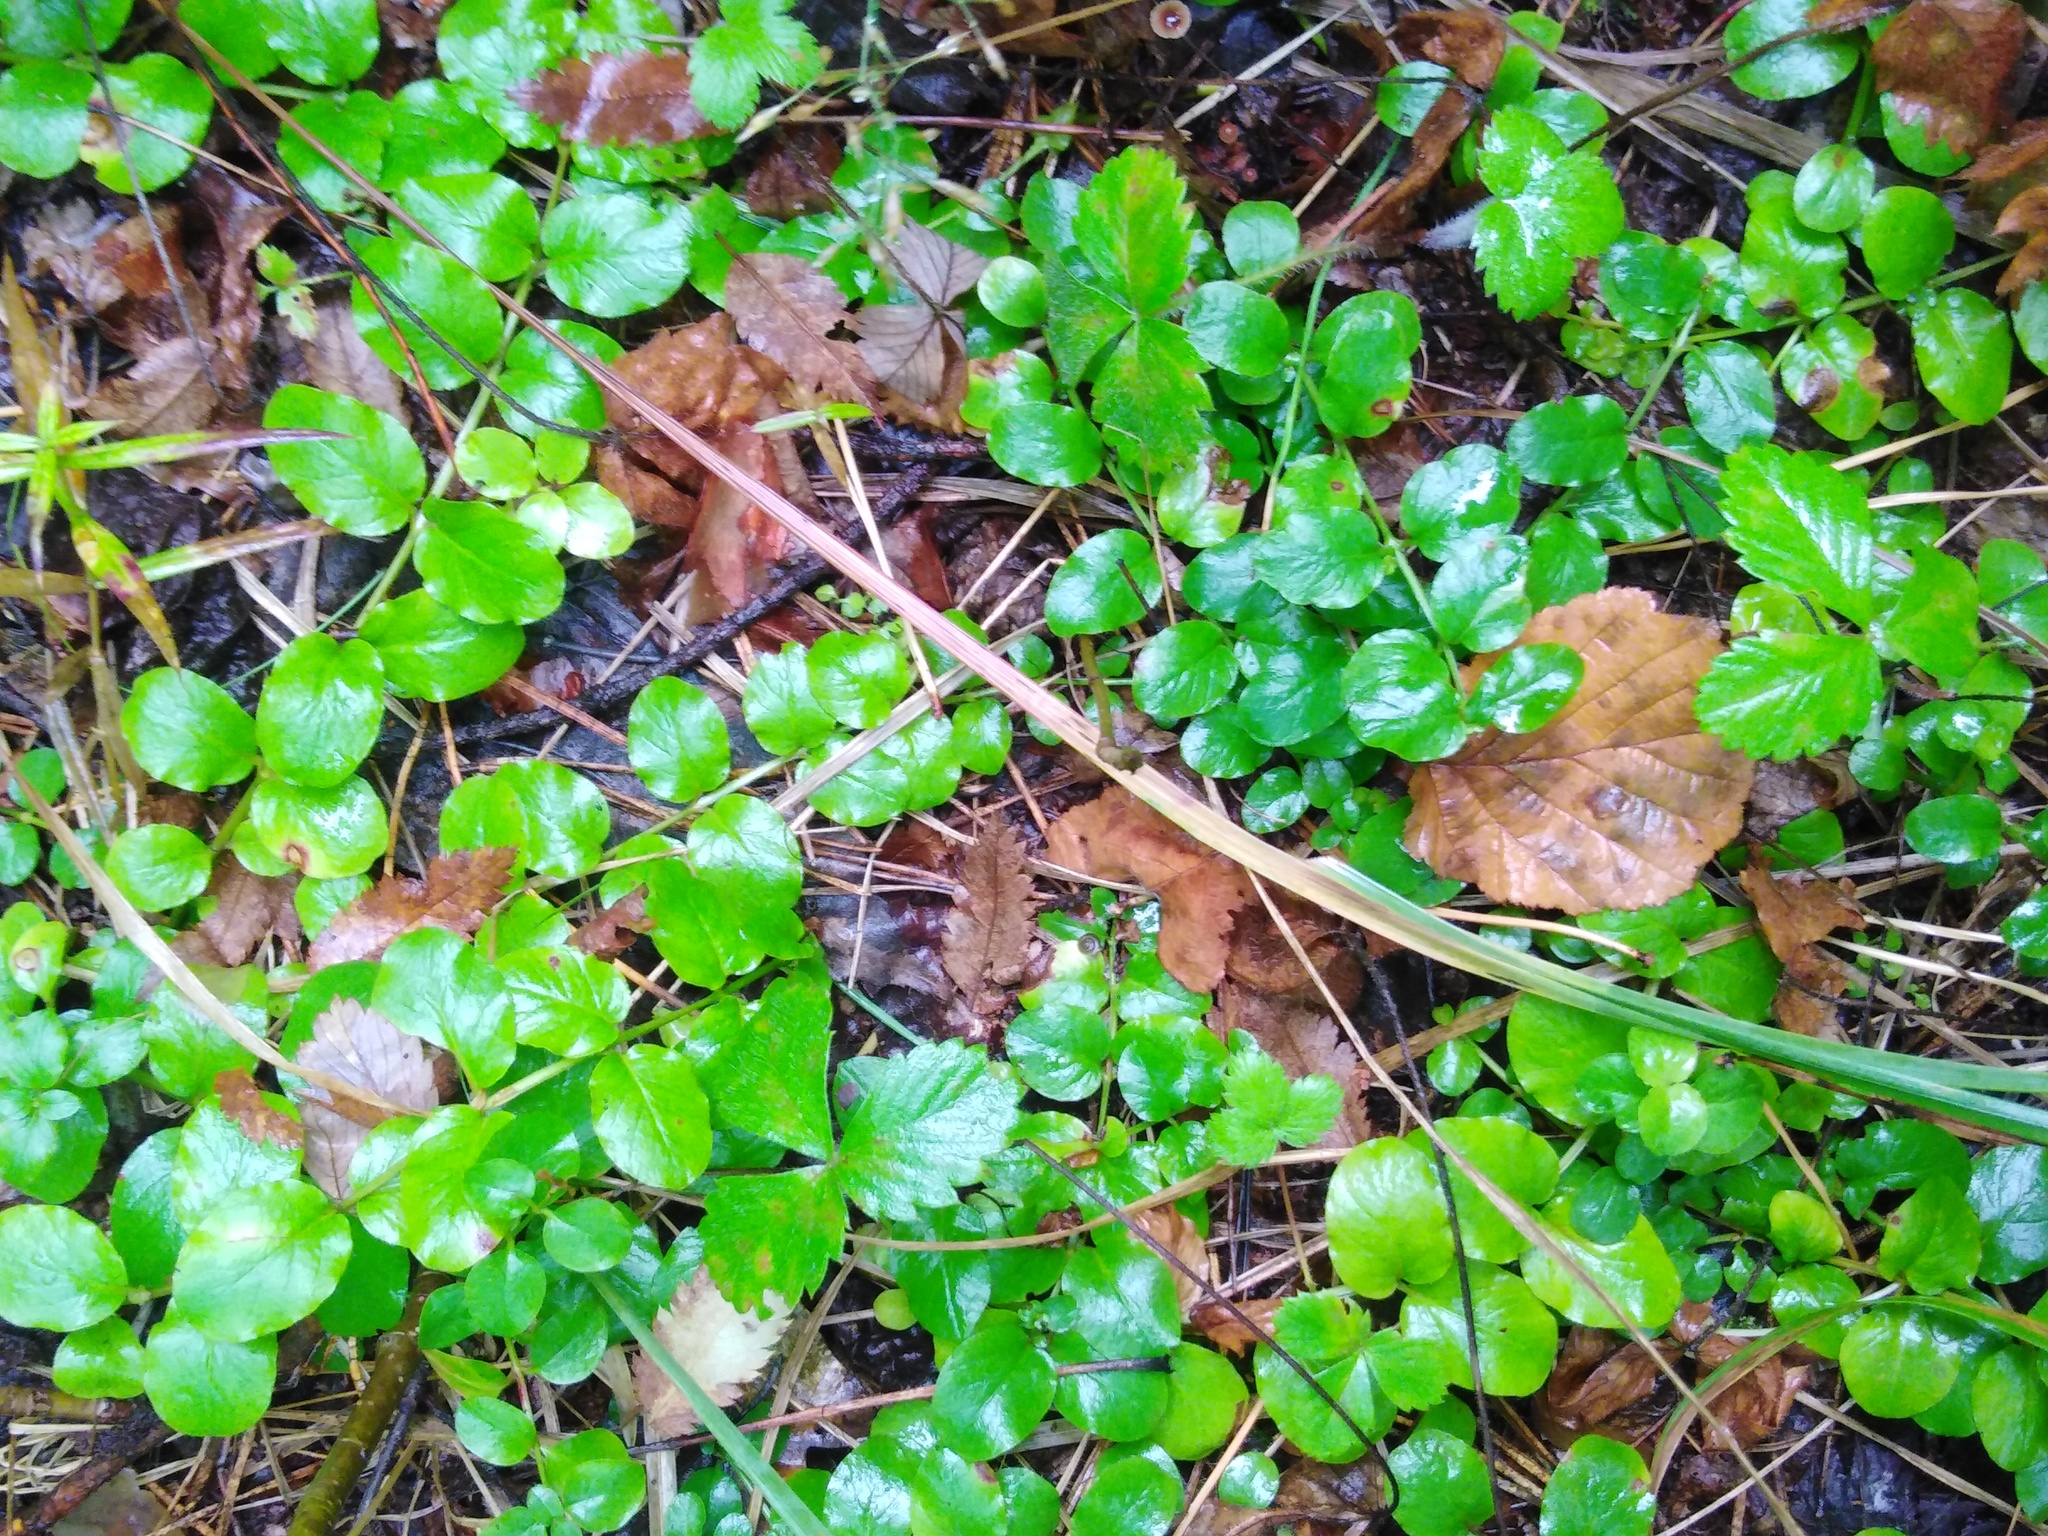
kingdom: Plantae
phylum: Tracheophyta
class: Magnoliopsida
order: Ericales
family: Primulaceae
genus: Lysimachia
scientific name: Lysimachia nummularia
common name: Moneywort
